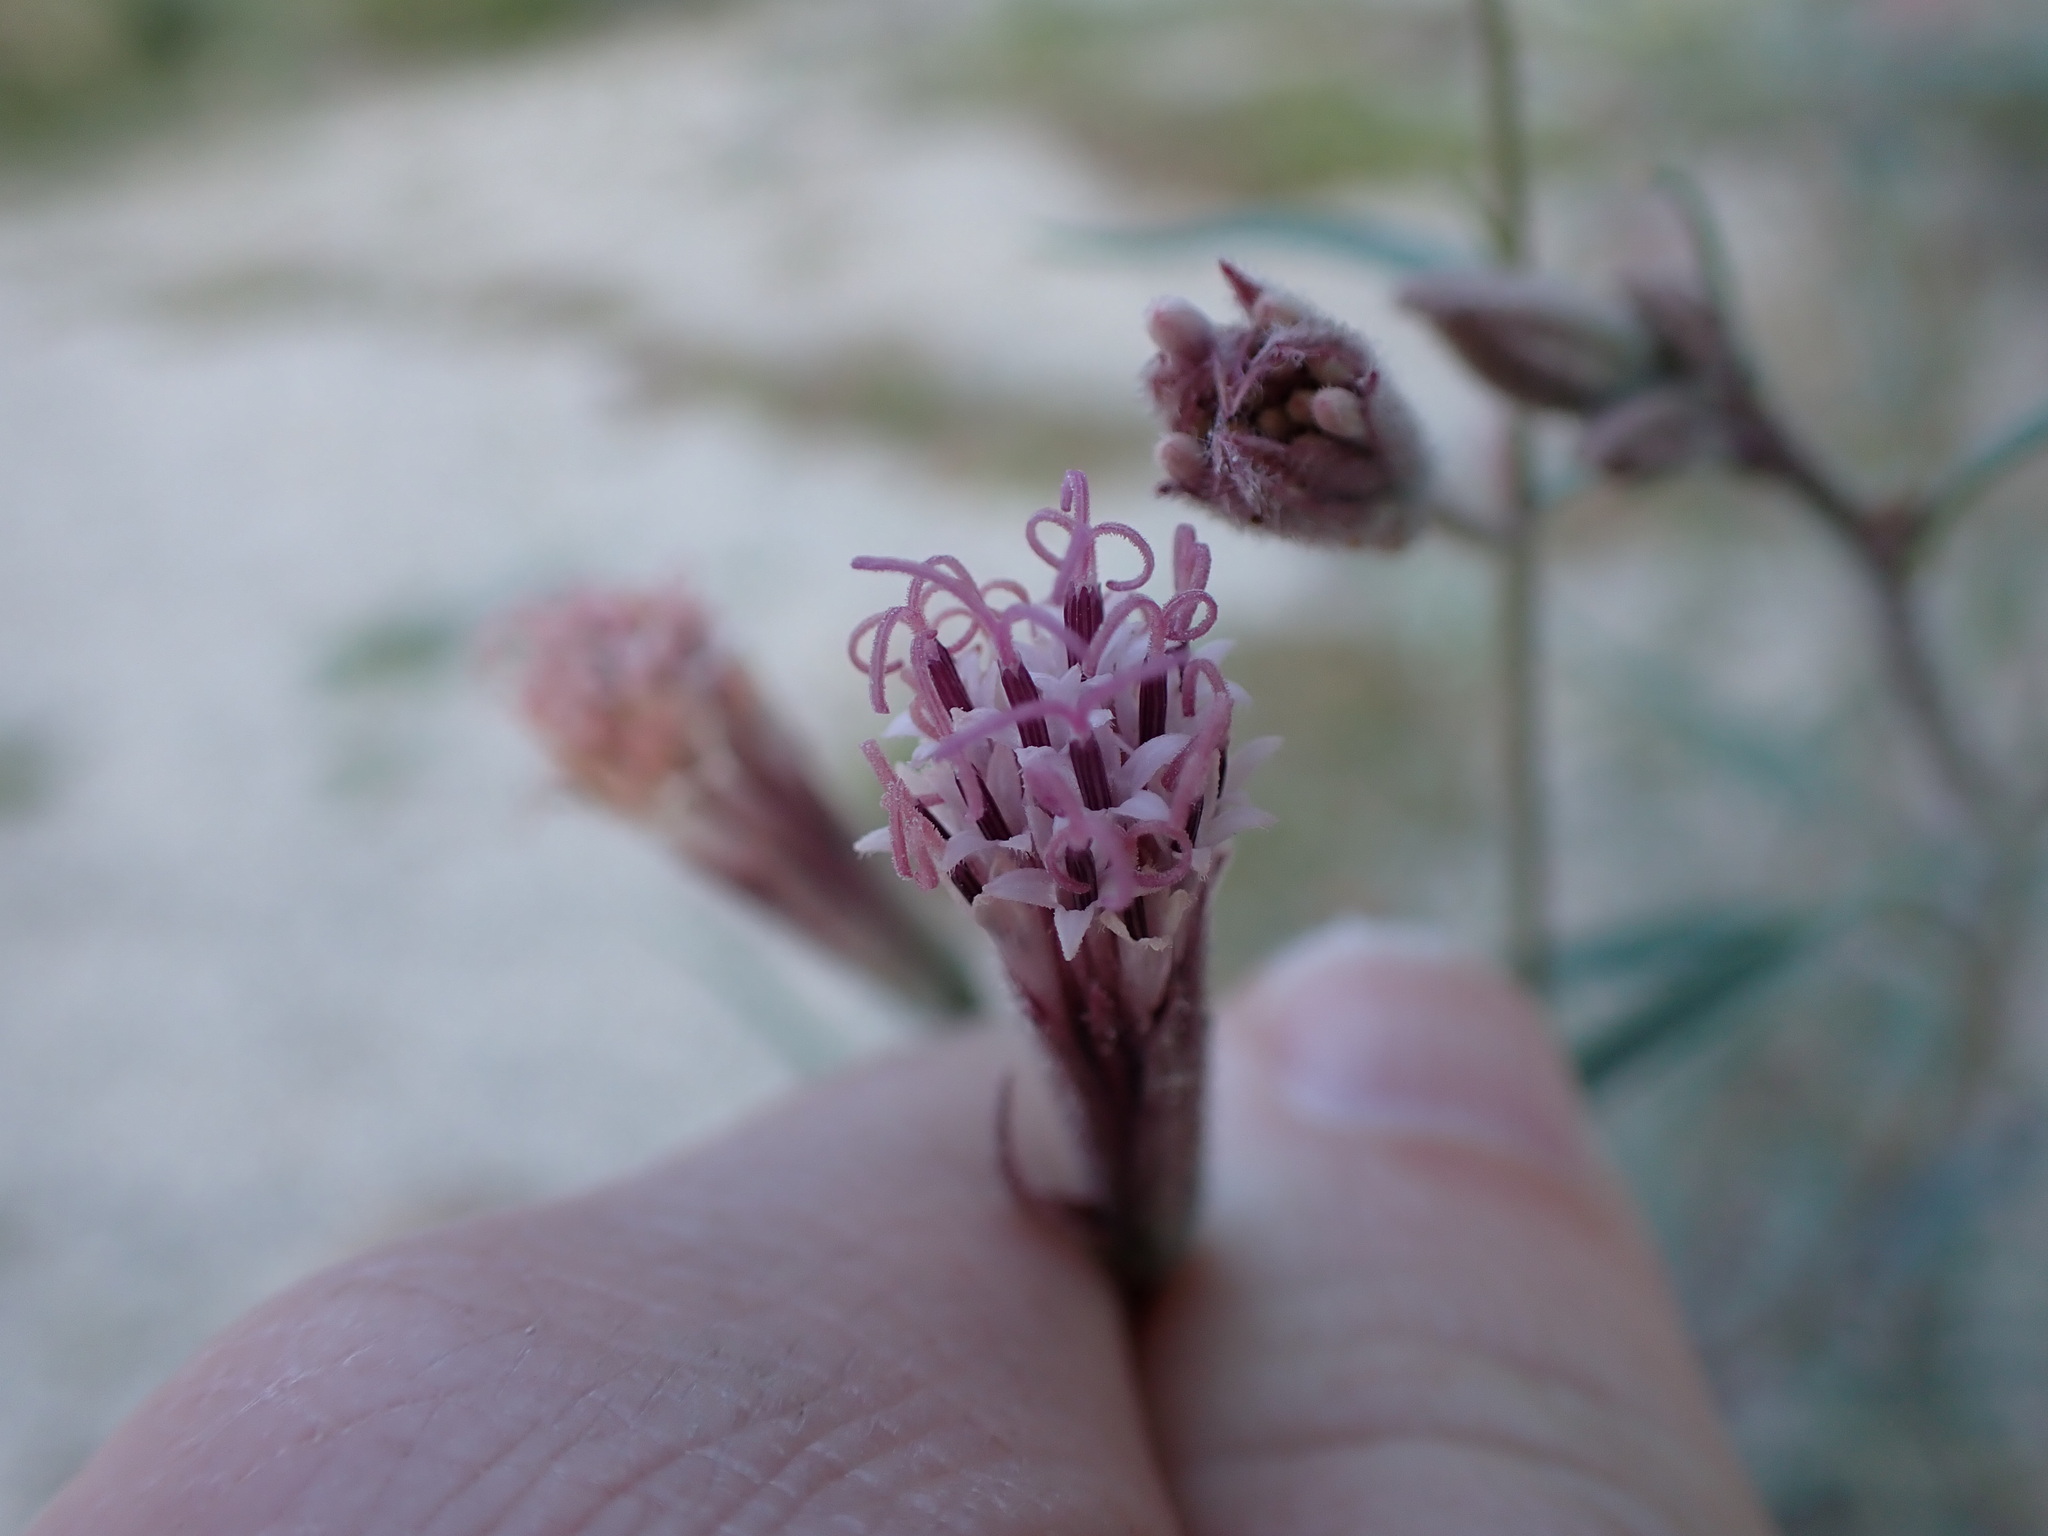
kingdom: Plantae
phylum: Tracheophyta
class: Magnoliopsida
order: Asterales
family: Asteraceae
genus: Palafoxia
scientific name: Palafoxia arida
